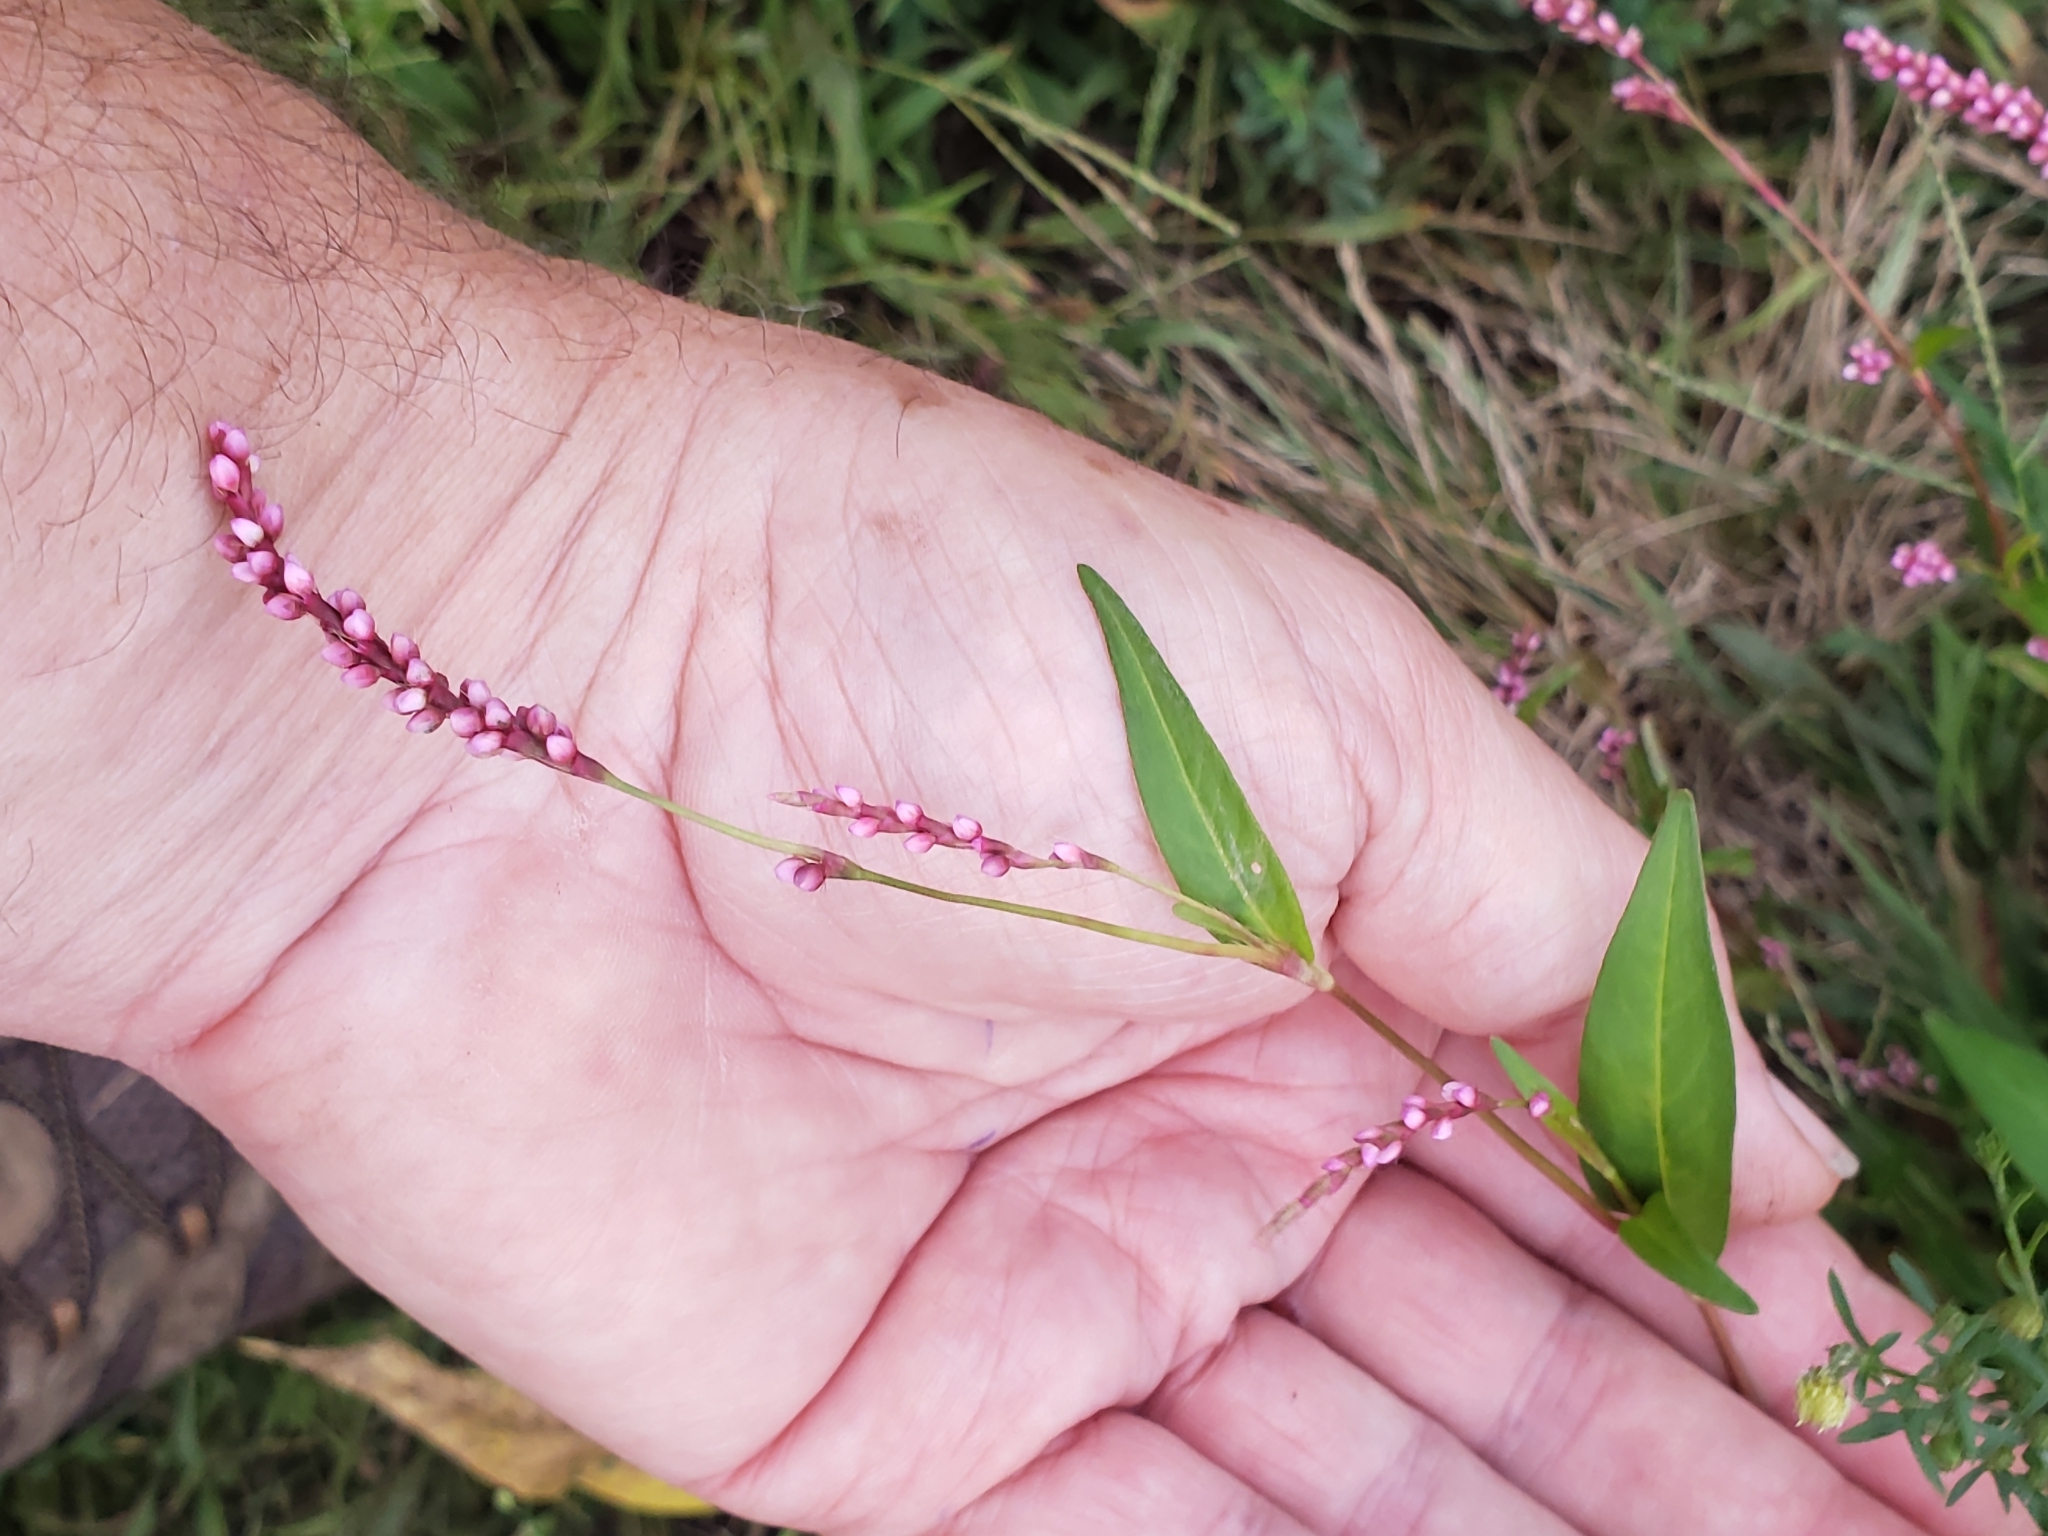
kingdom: Plantae
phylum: Tracheophyta
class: Magnoliopsida
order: Caryophyllales
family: Polygonaceae
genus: Persicaria
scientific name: Persicaria longiseta
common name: Bristly lady's-thumb
